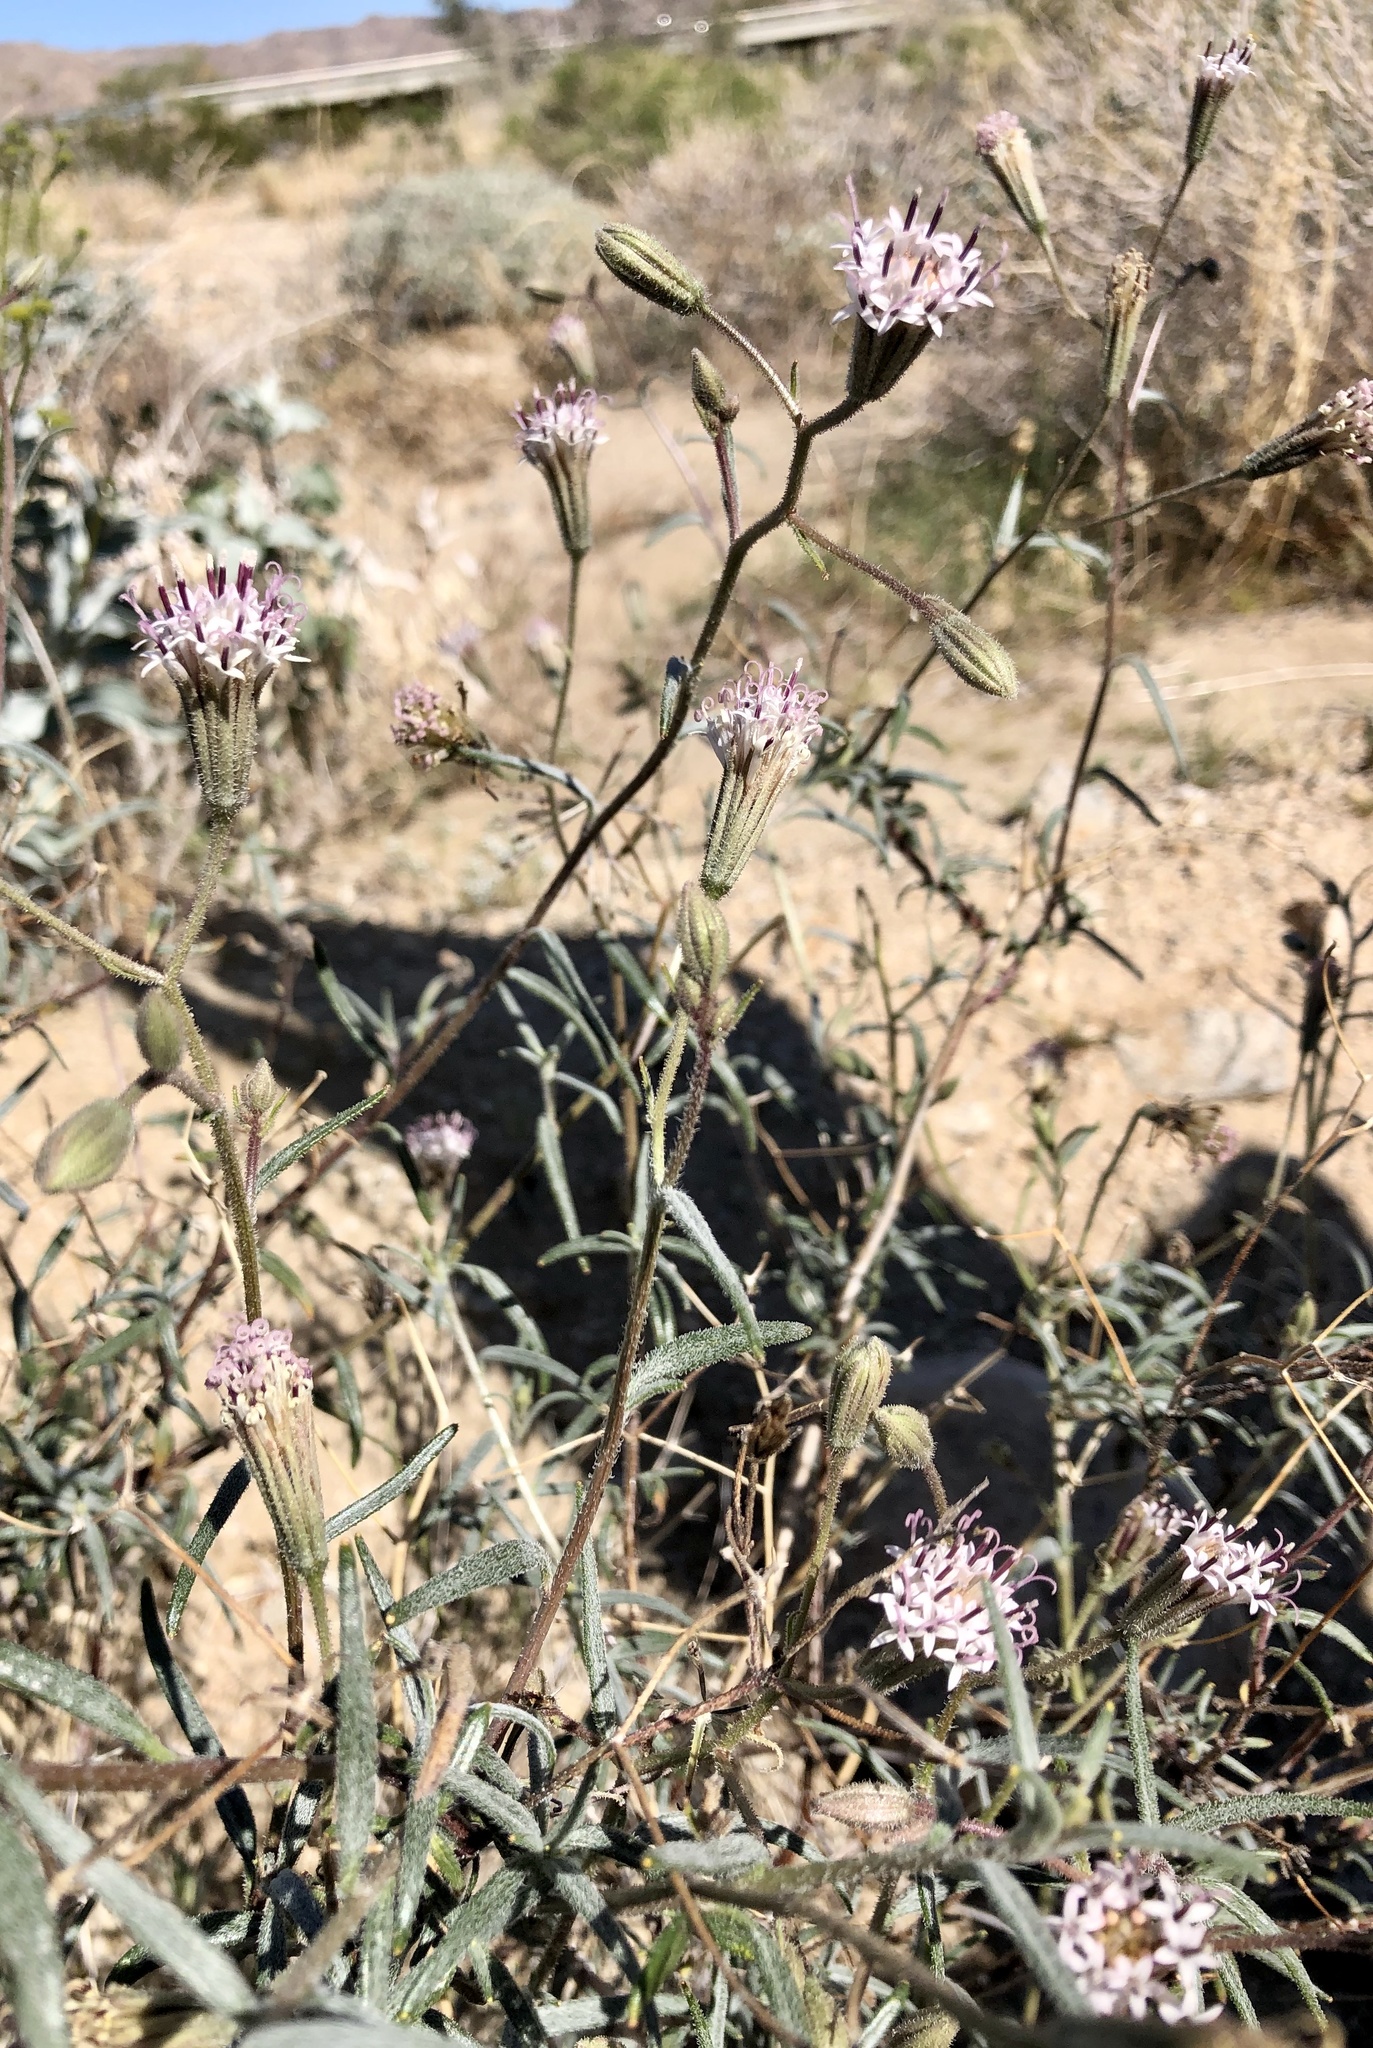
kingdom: Plantae
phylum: Tracheophyta
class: Magnoliopsida
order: Asterales
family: Asteraceae
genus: Palafoxia
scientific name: Palafoxia arida
